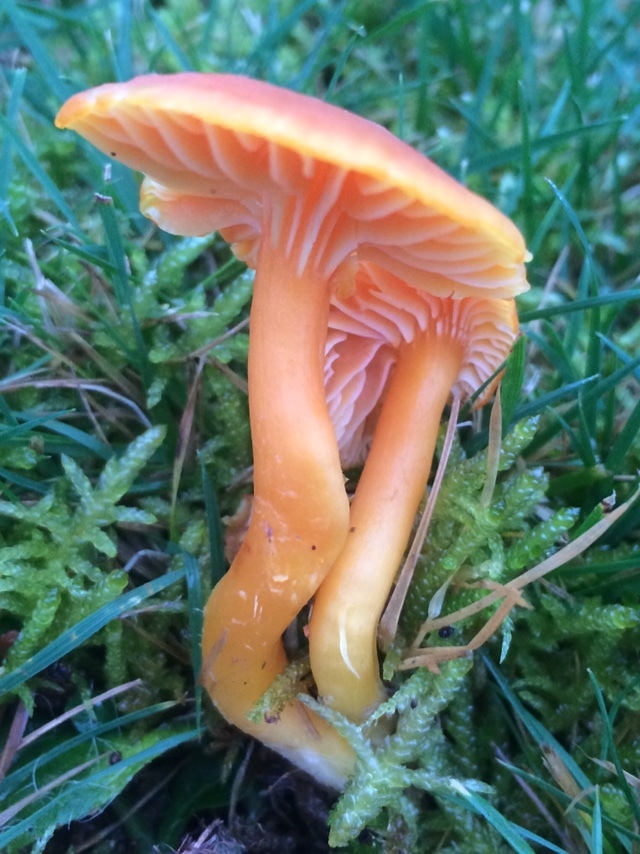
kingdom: Fungi
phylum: Basidiomycota
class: Agaricomycetes
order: Agaricales
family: Hygrophoraceae
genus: Hygrocybe
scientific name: Hygrocybe reidii
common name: Honey waxcap
